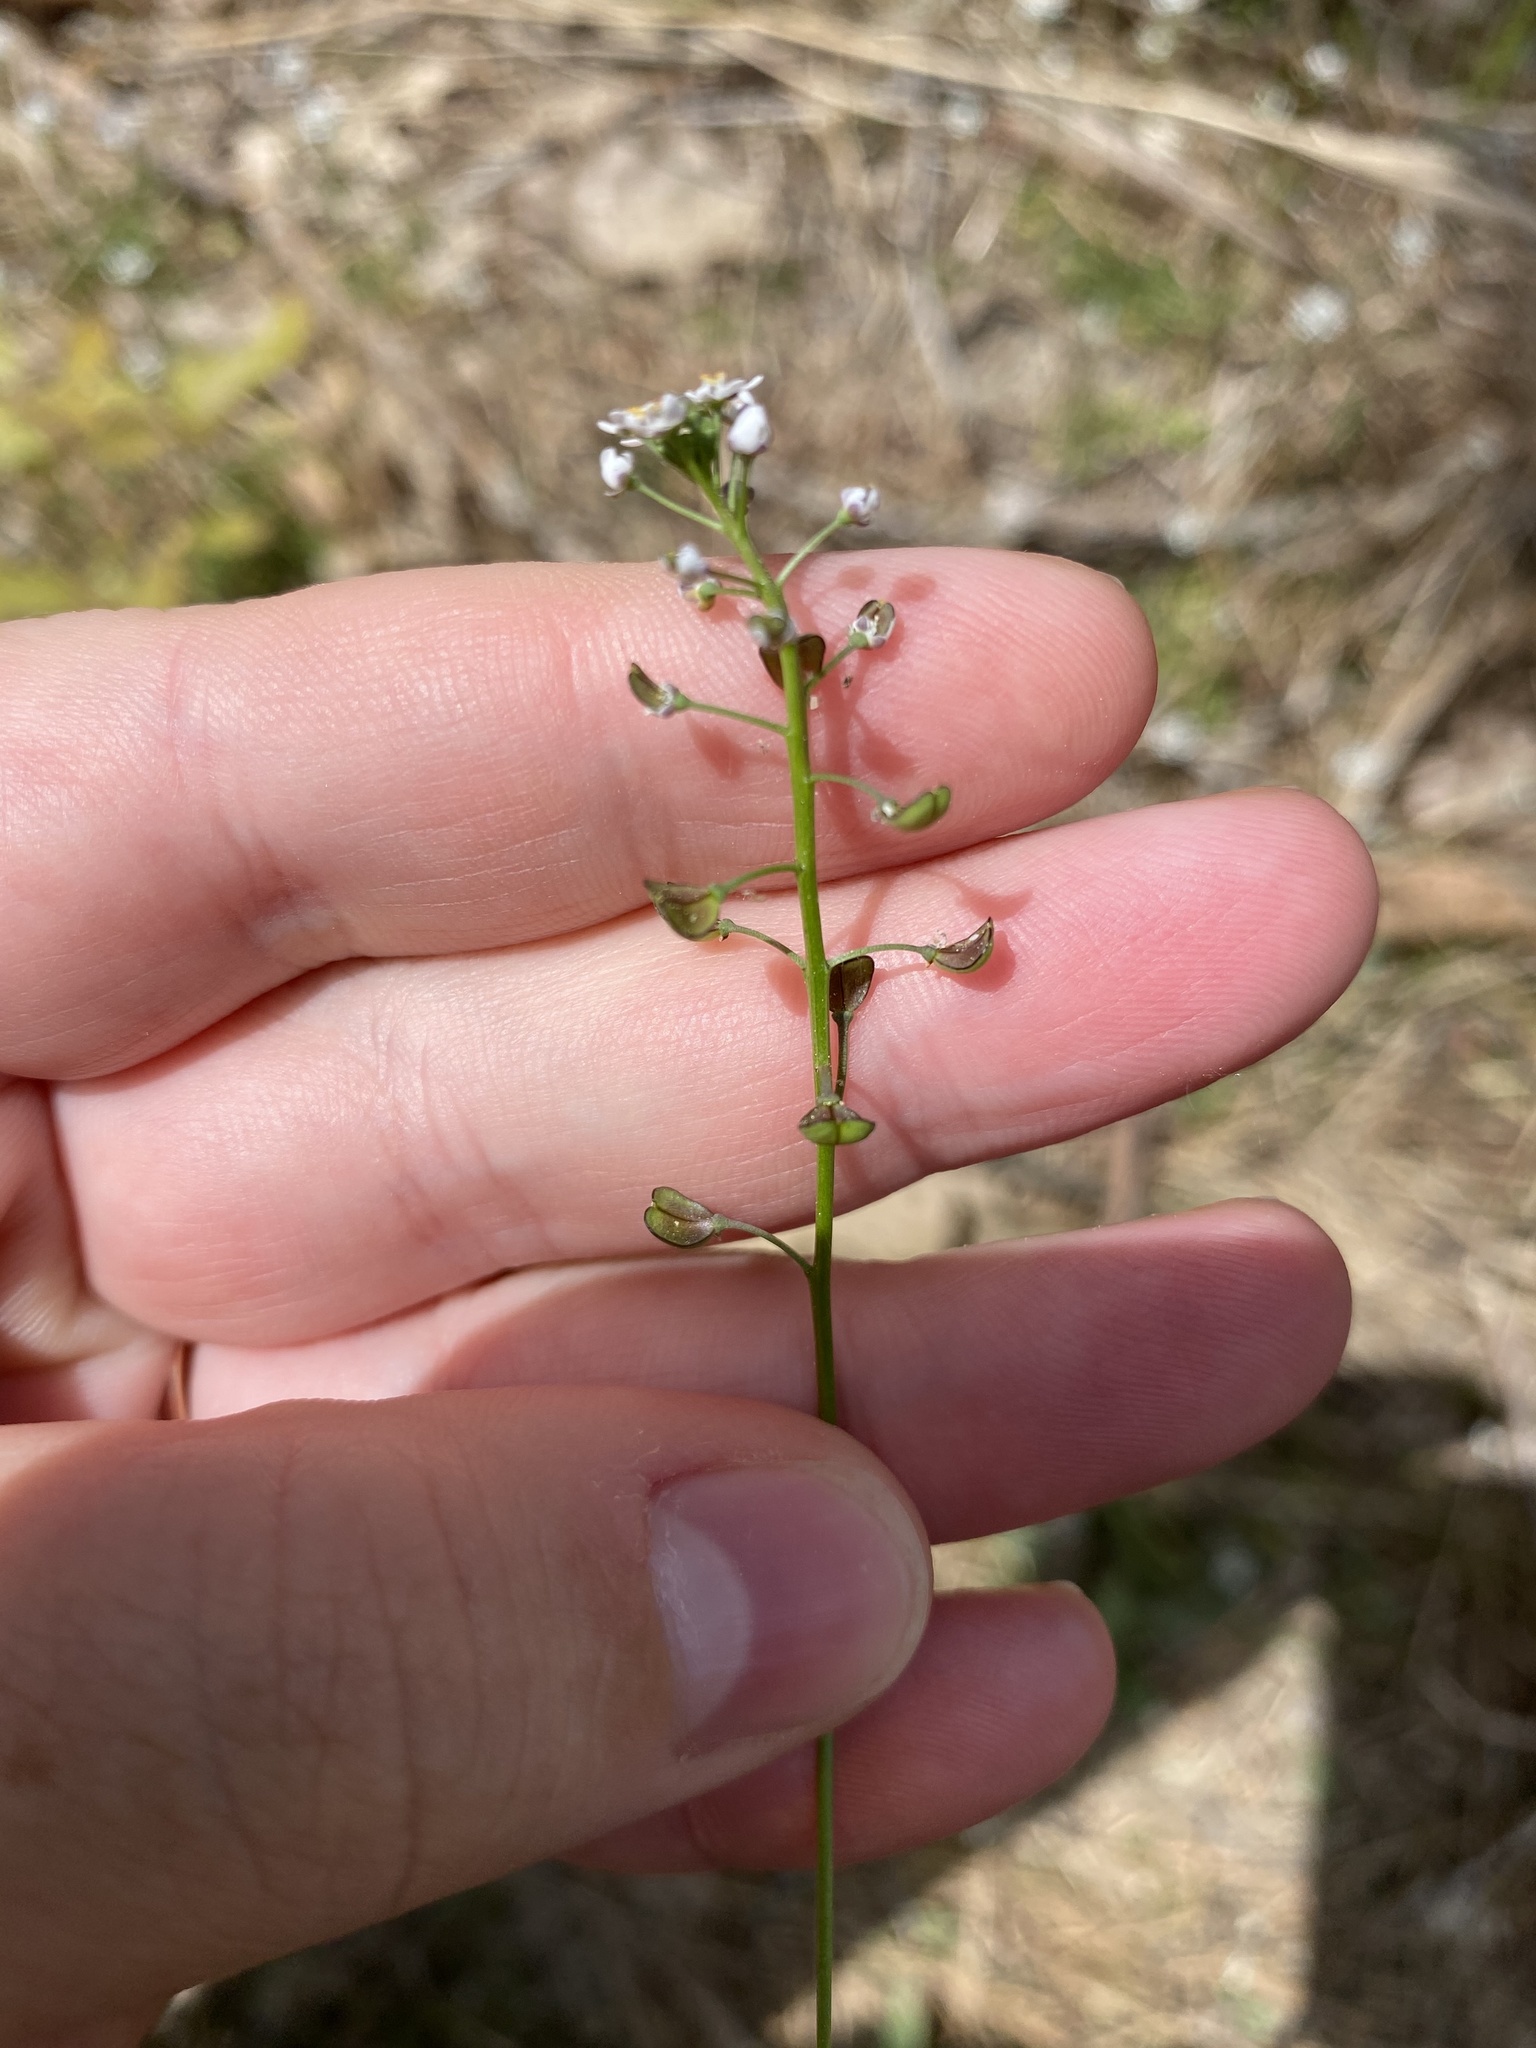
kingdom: Plantae
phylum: Tracheophyta
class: Magnoliopsida
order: Brassicales
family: Brassicaceae
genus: Teesdalia
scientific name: Teesdalia nudicaulis
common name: Shepherd's cress
